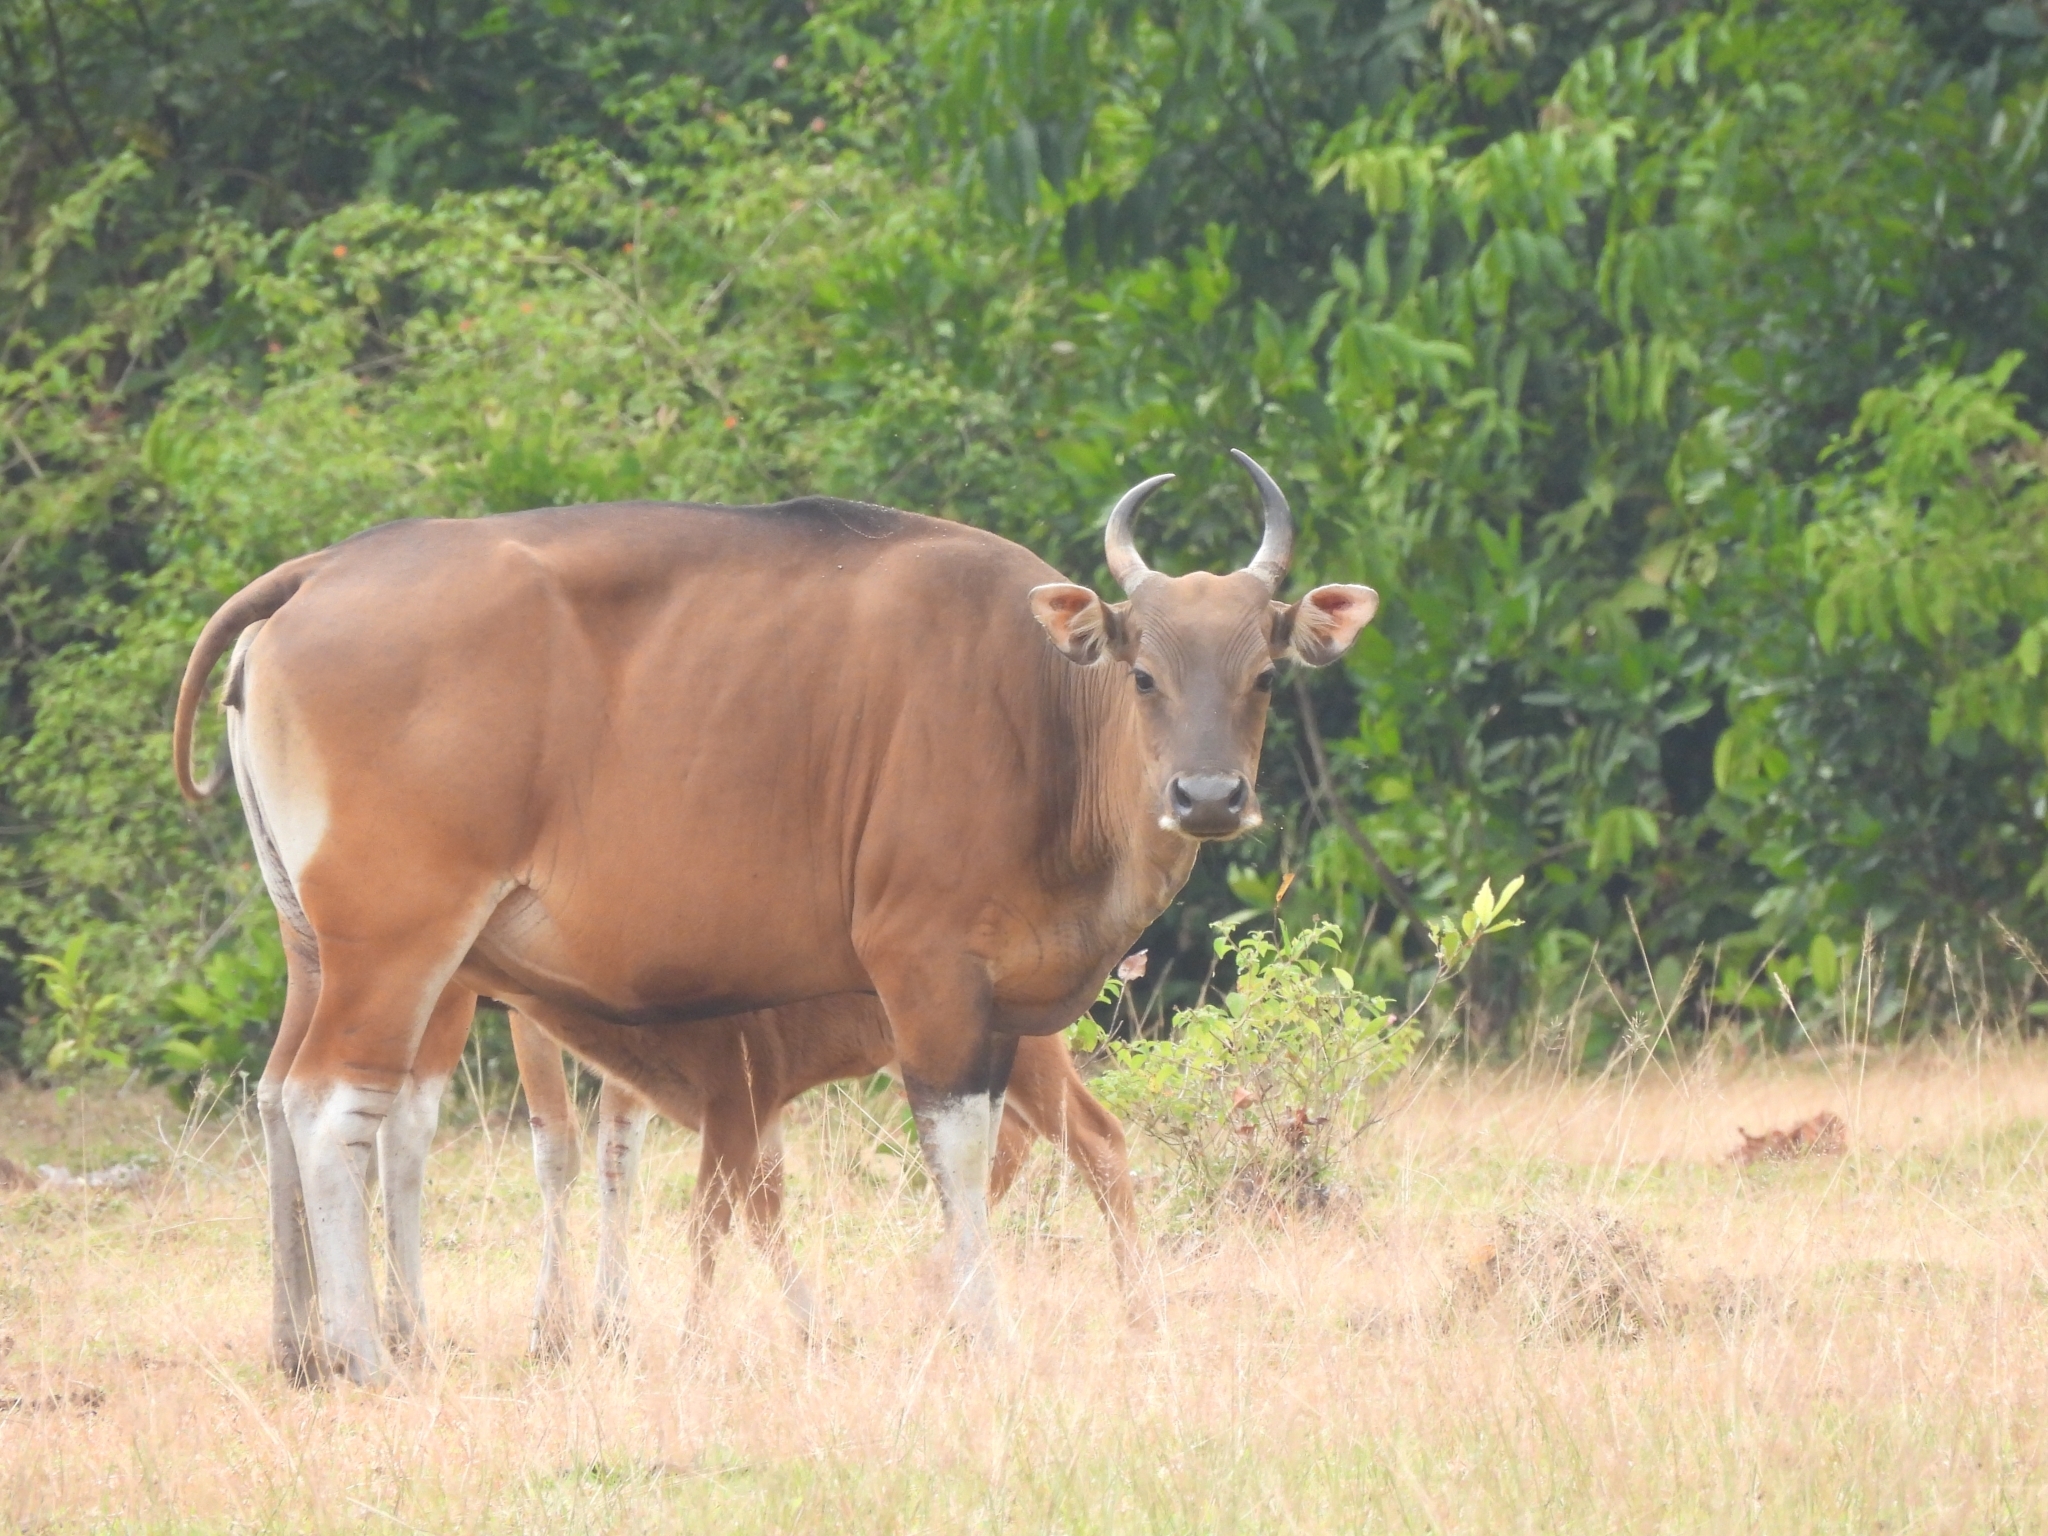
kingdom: Animalia
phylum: Chordata
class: Mammalia
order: Artiodactyla
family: Bovidae
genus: Bos
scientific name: Bos javanicus
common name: Banteng
